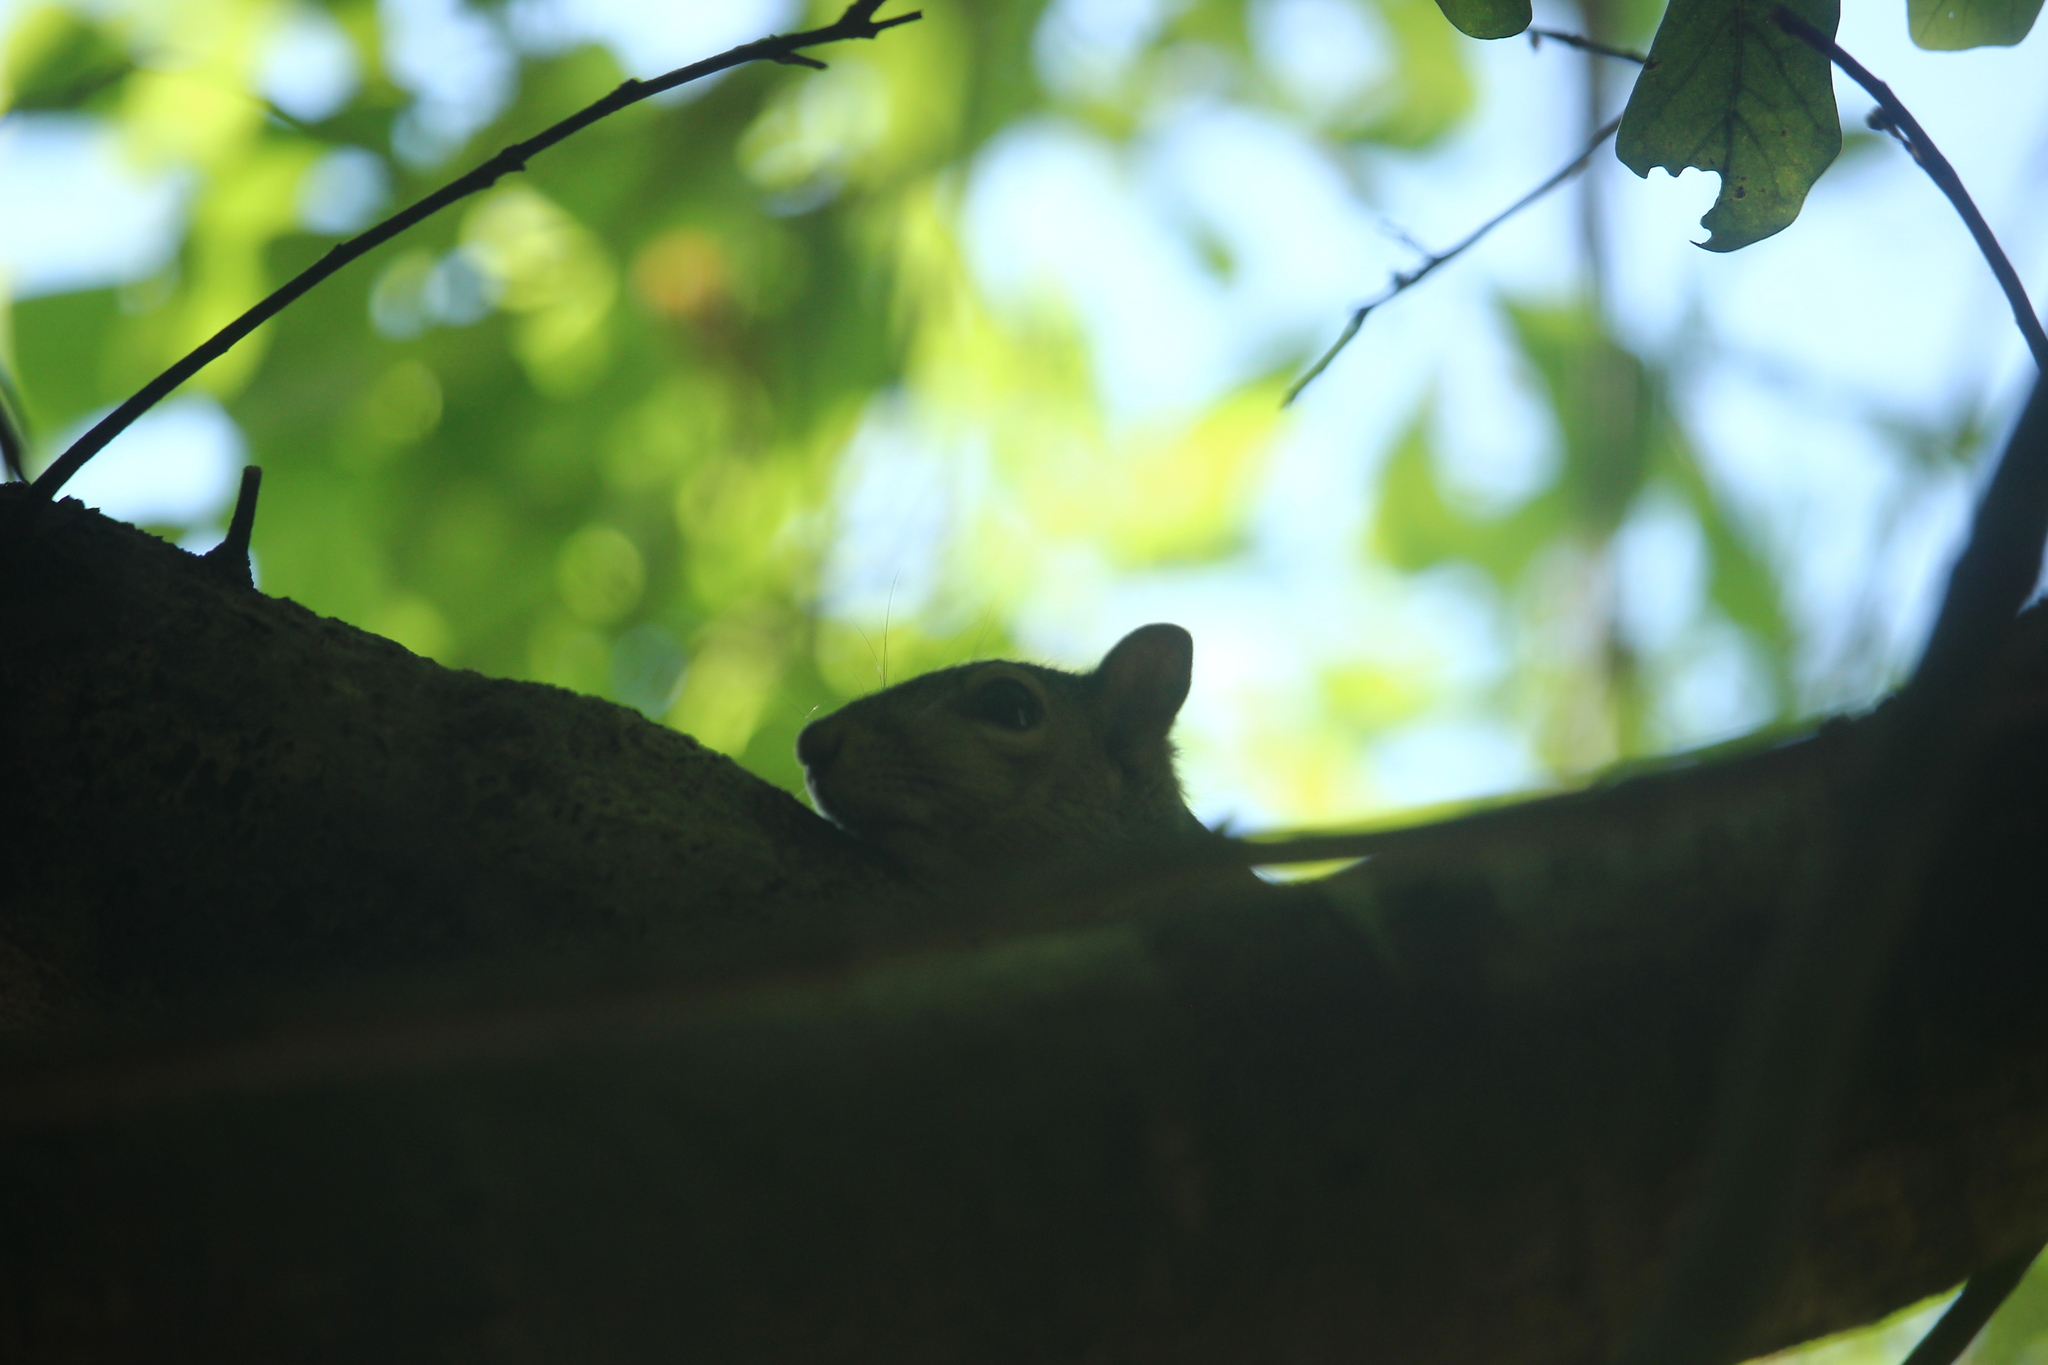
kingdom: Animalia
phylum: Chordata
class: Mammalia
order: Rodentia
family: Sciuridae
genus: Sciurus
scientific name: Sciurus carolinensis
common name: Eastern gray squirrel
